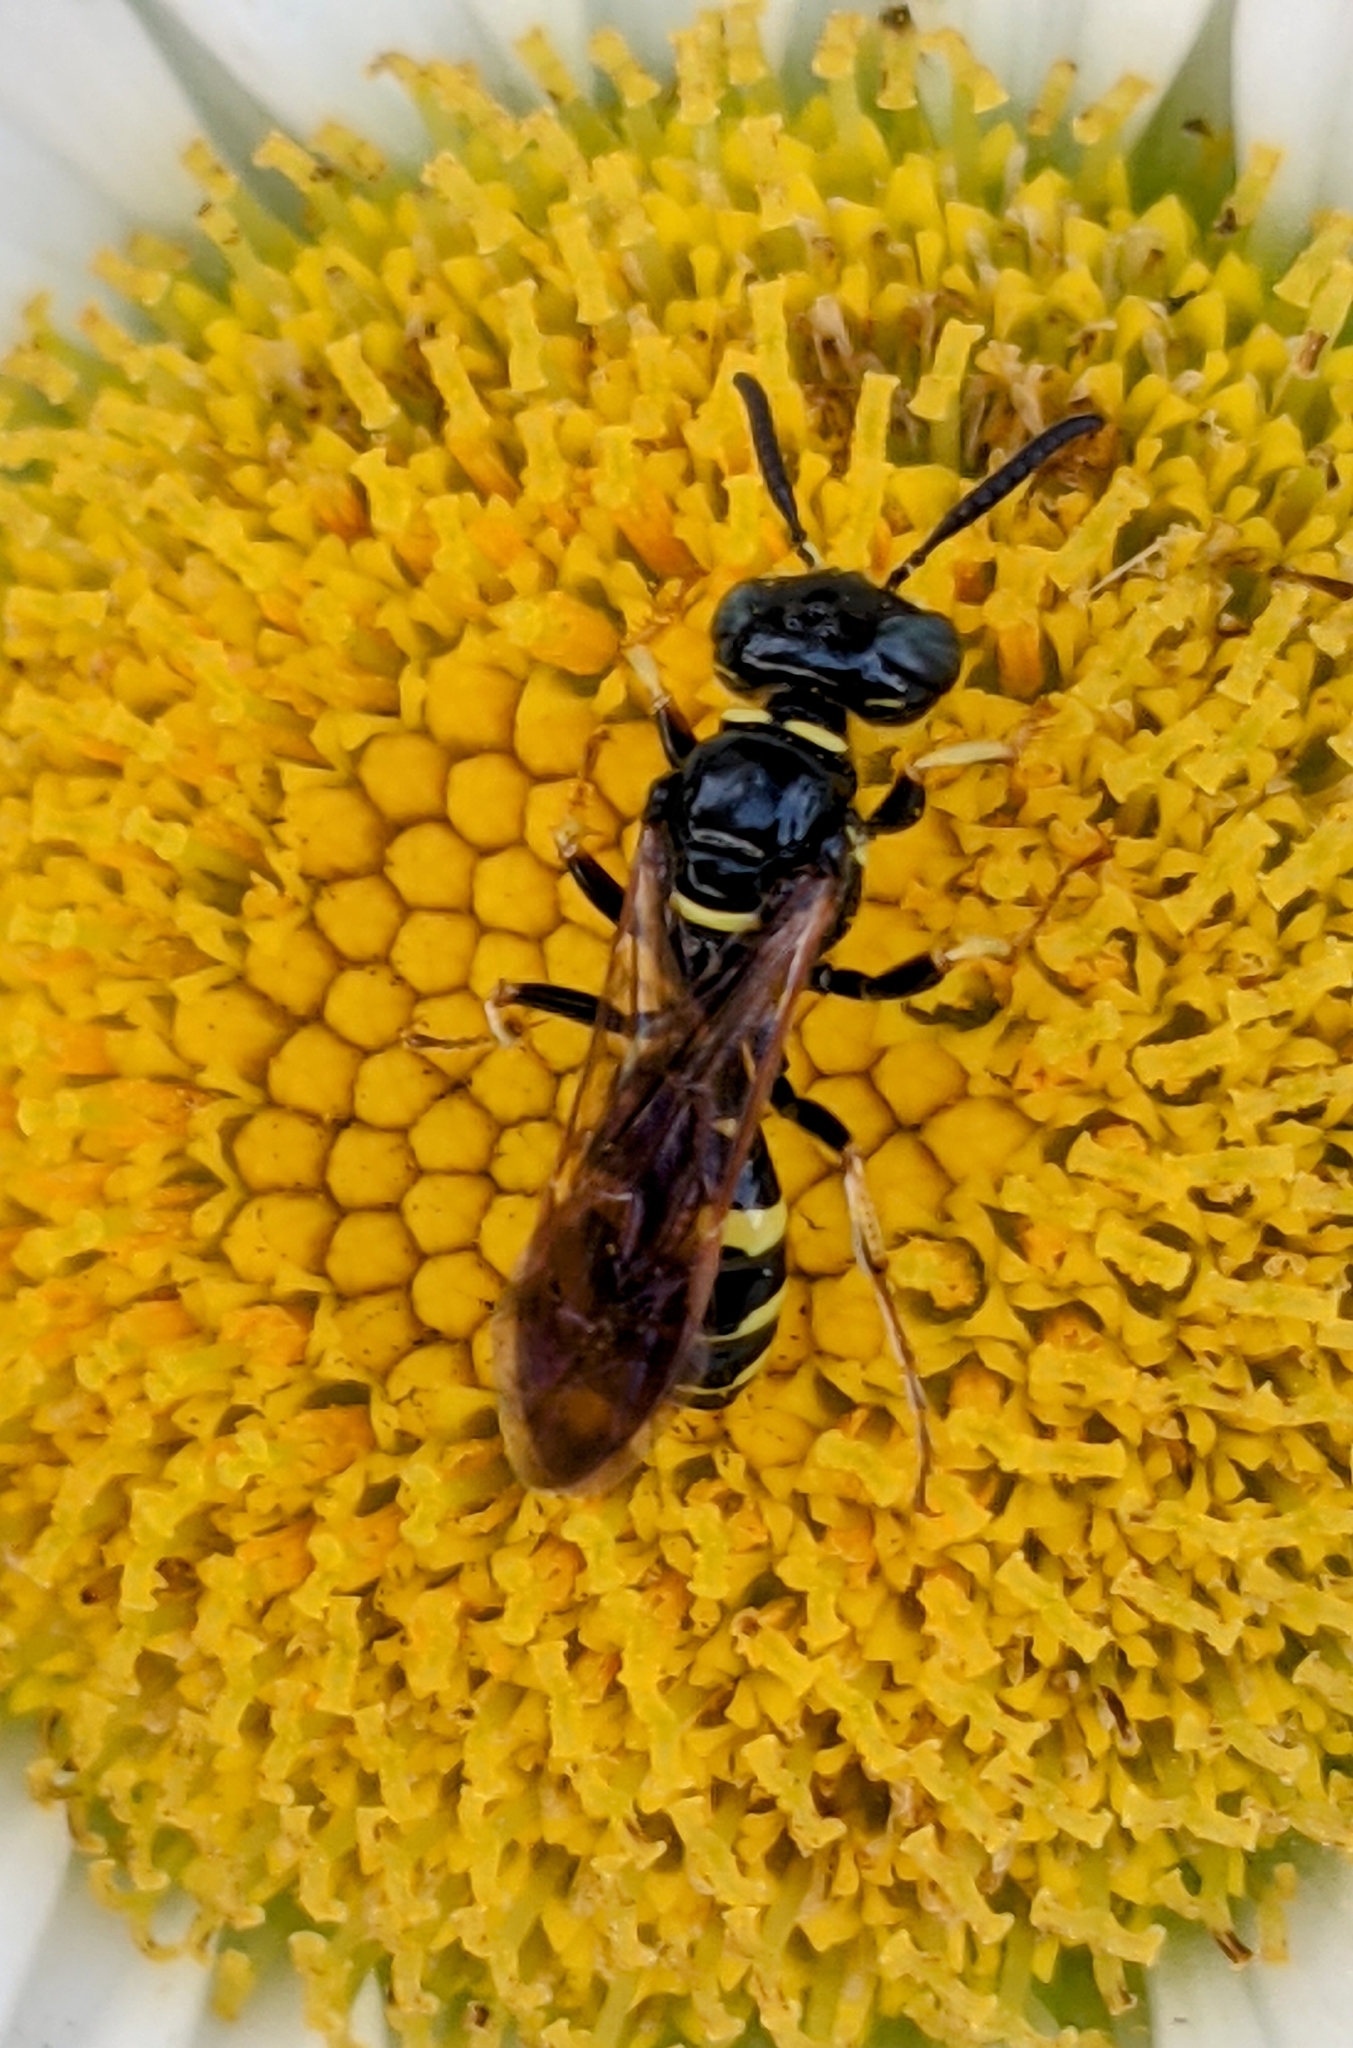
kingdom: Animalia
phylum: Arthropoda
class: Insecta
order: Hymenoptera
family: Crabronidae
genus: Philanthus
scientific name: Philanthus bilunatus
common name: Two moons beewolf
